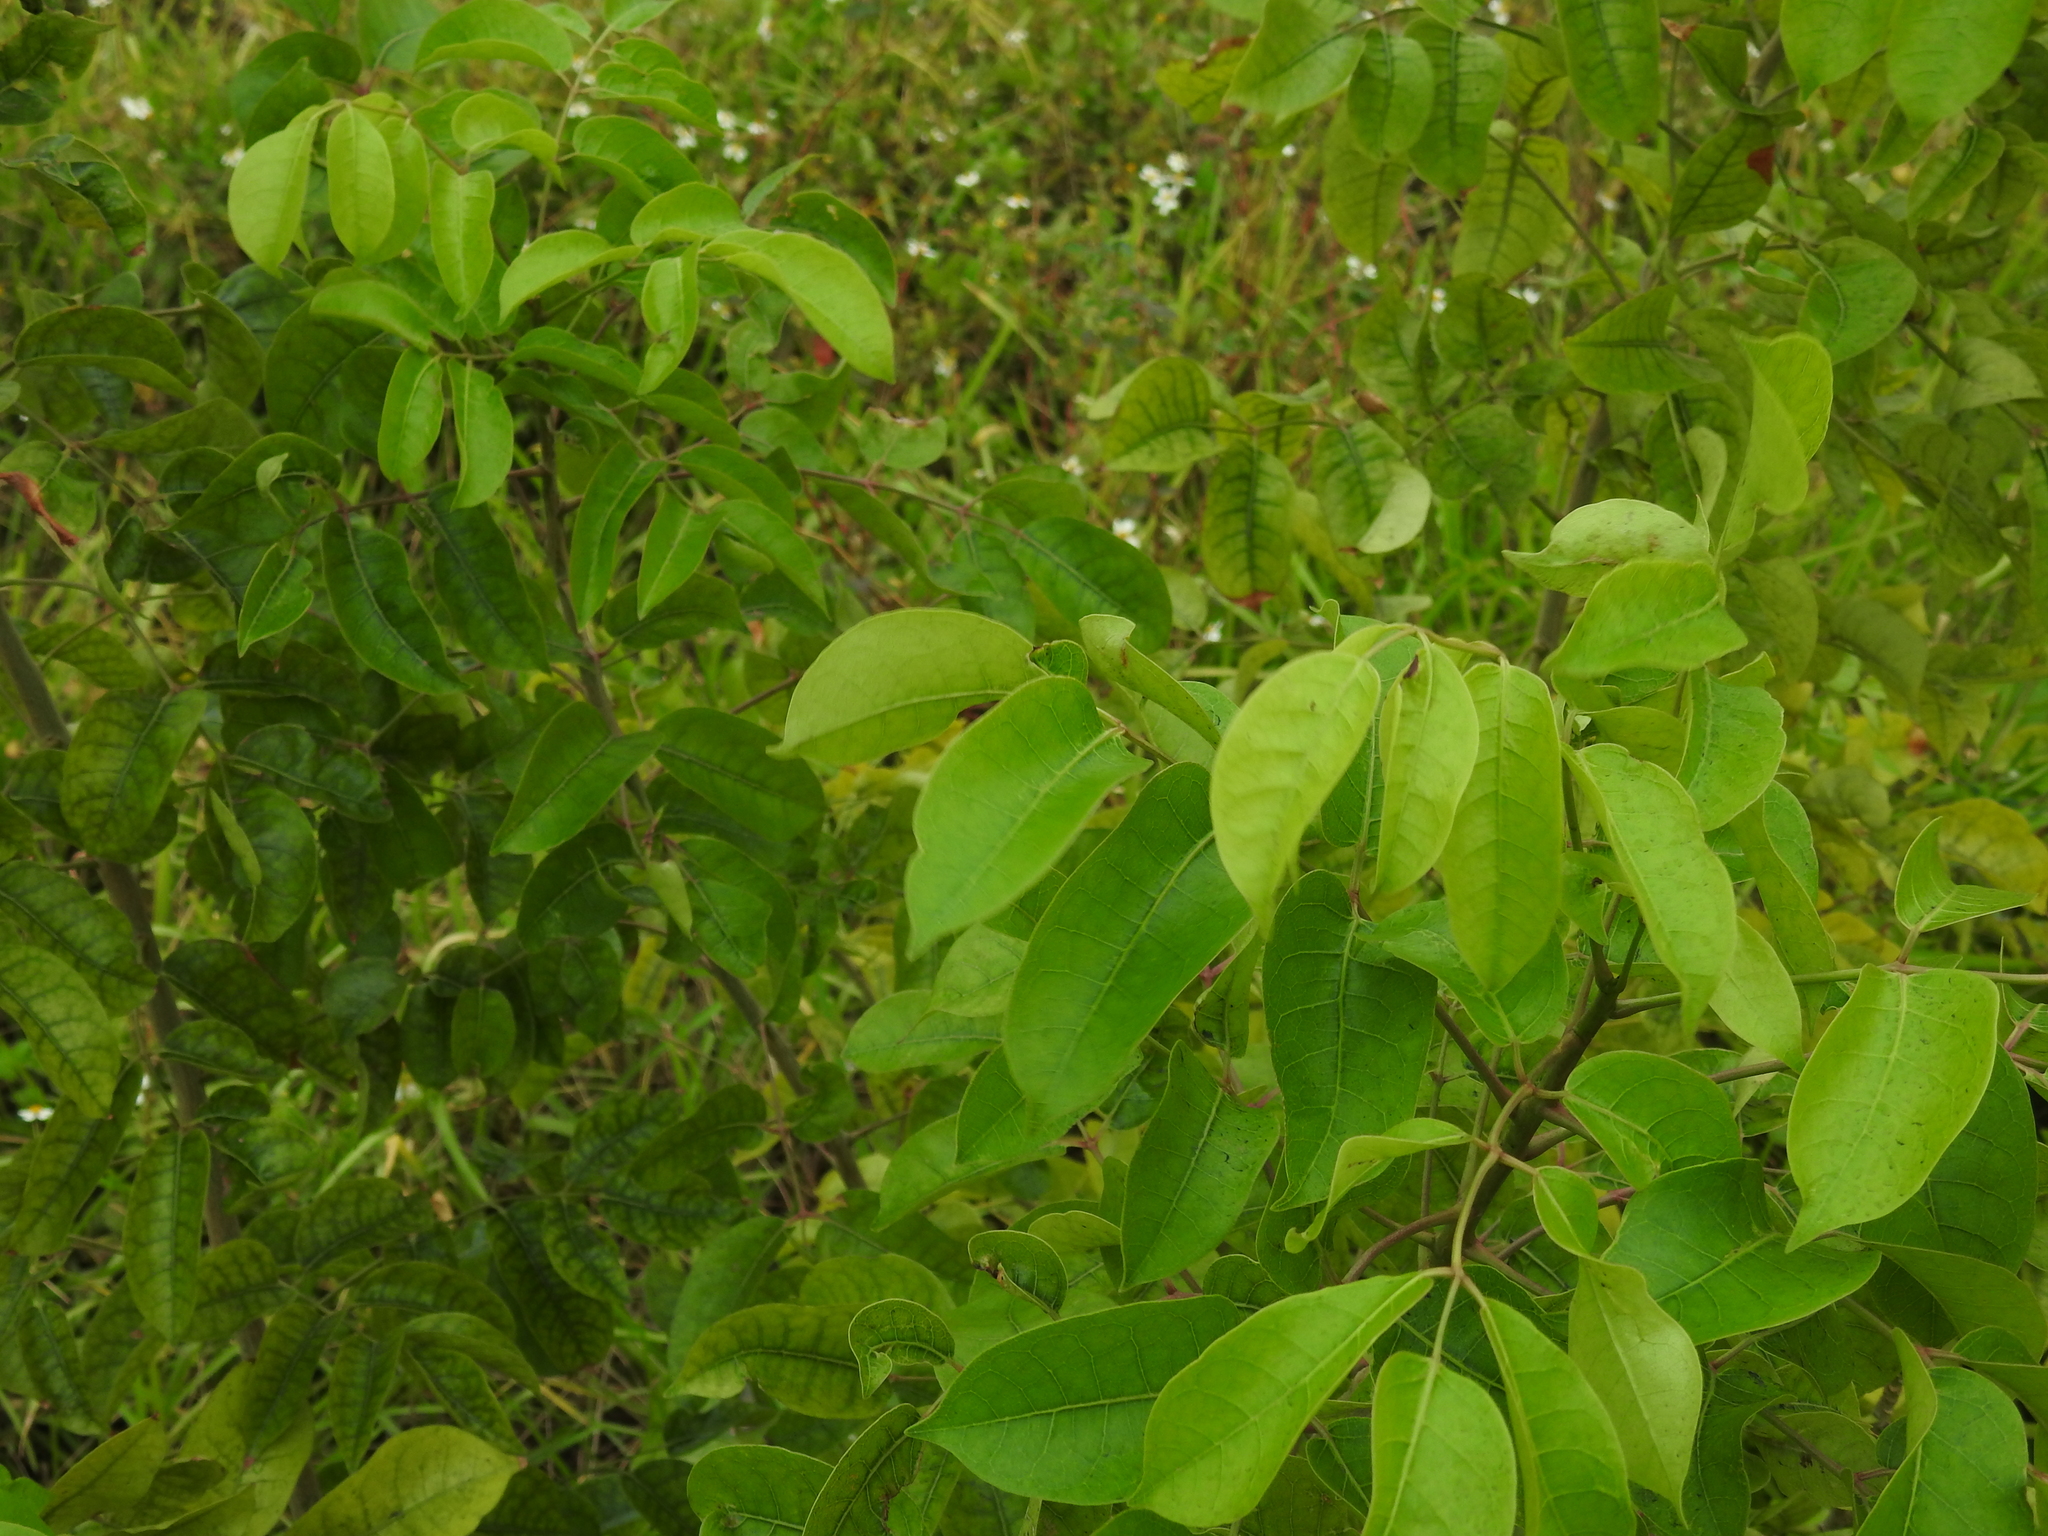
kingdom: Plantae
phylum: Tracheophyta
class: Magnoliopsida
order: Sapindales
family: Burseraceae
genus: Bursera
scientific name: Bursera simaruba
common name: Turpentine tree
